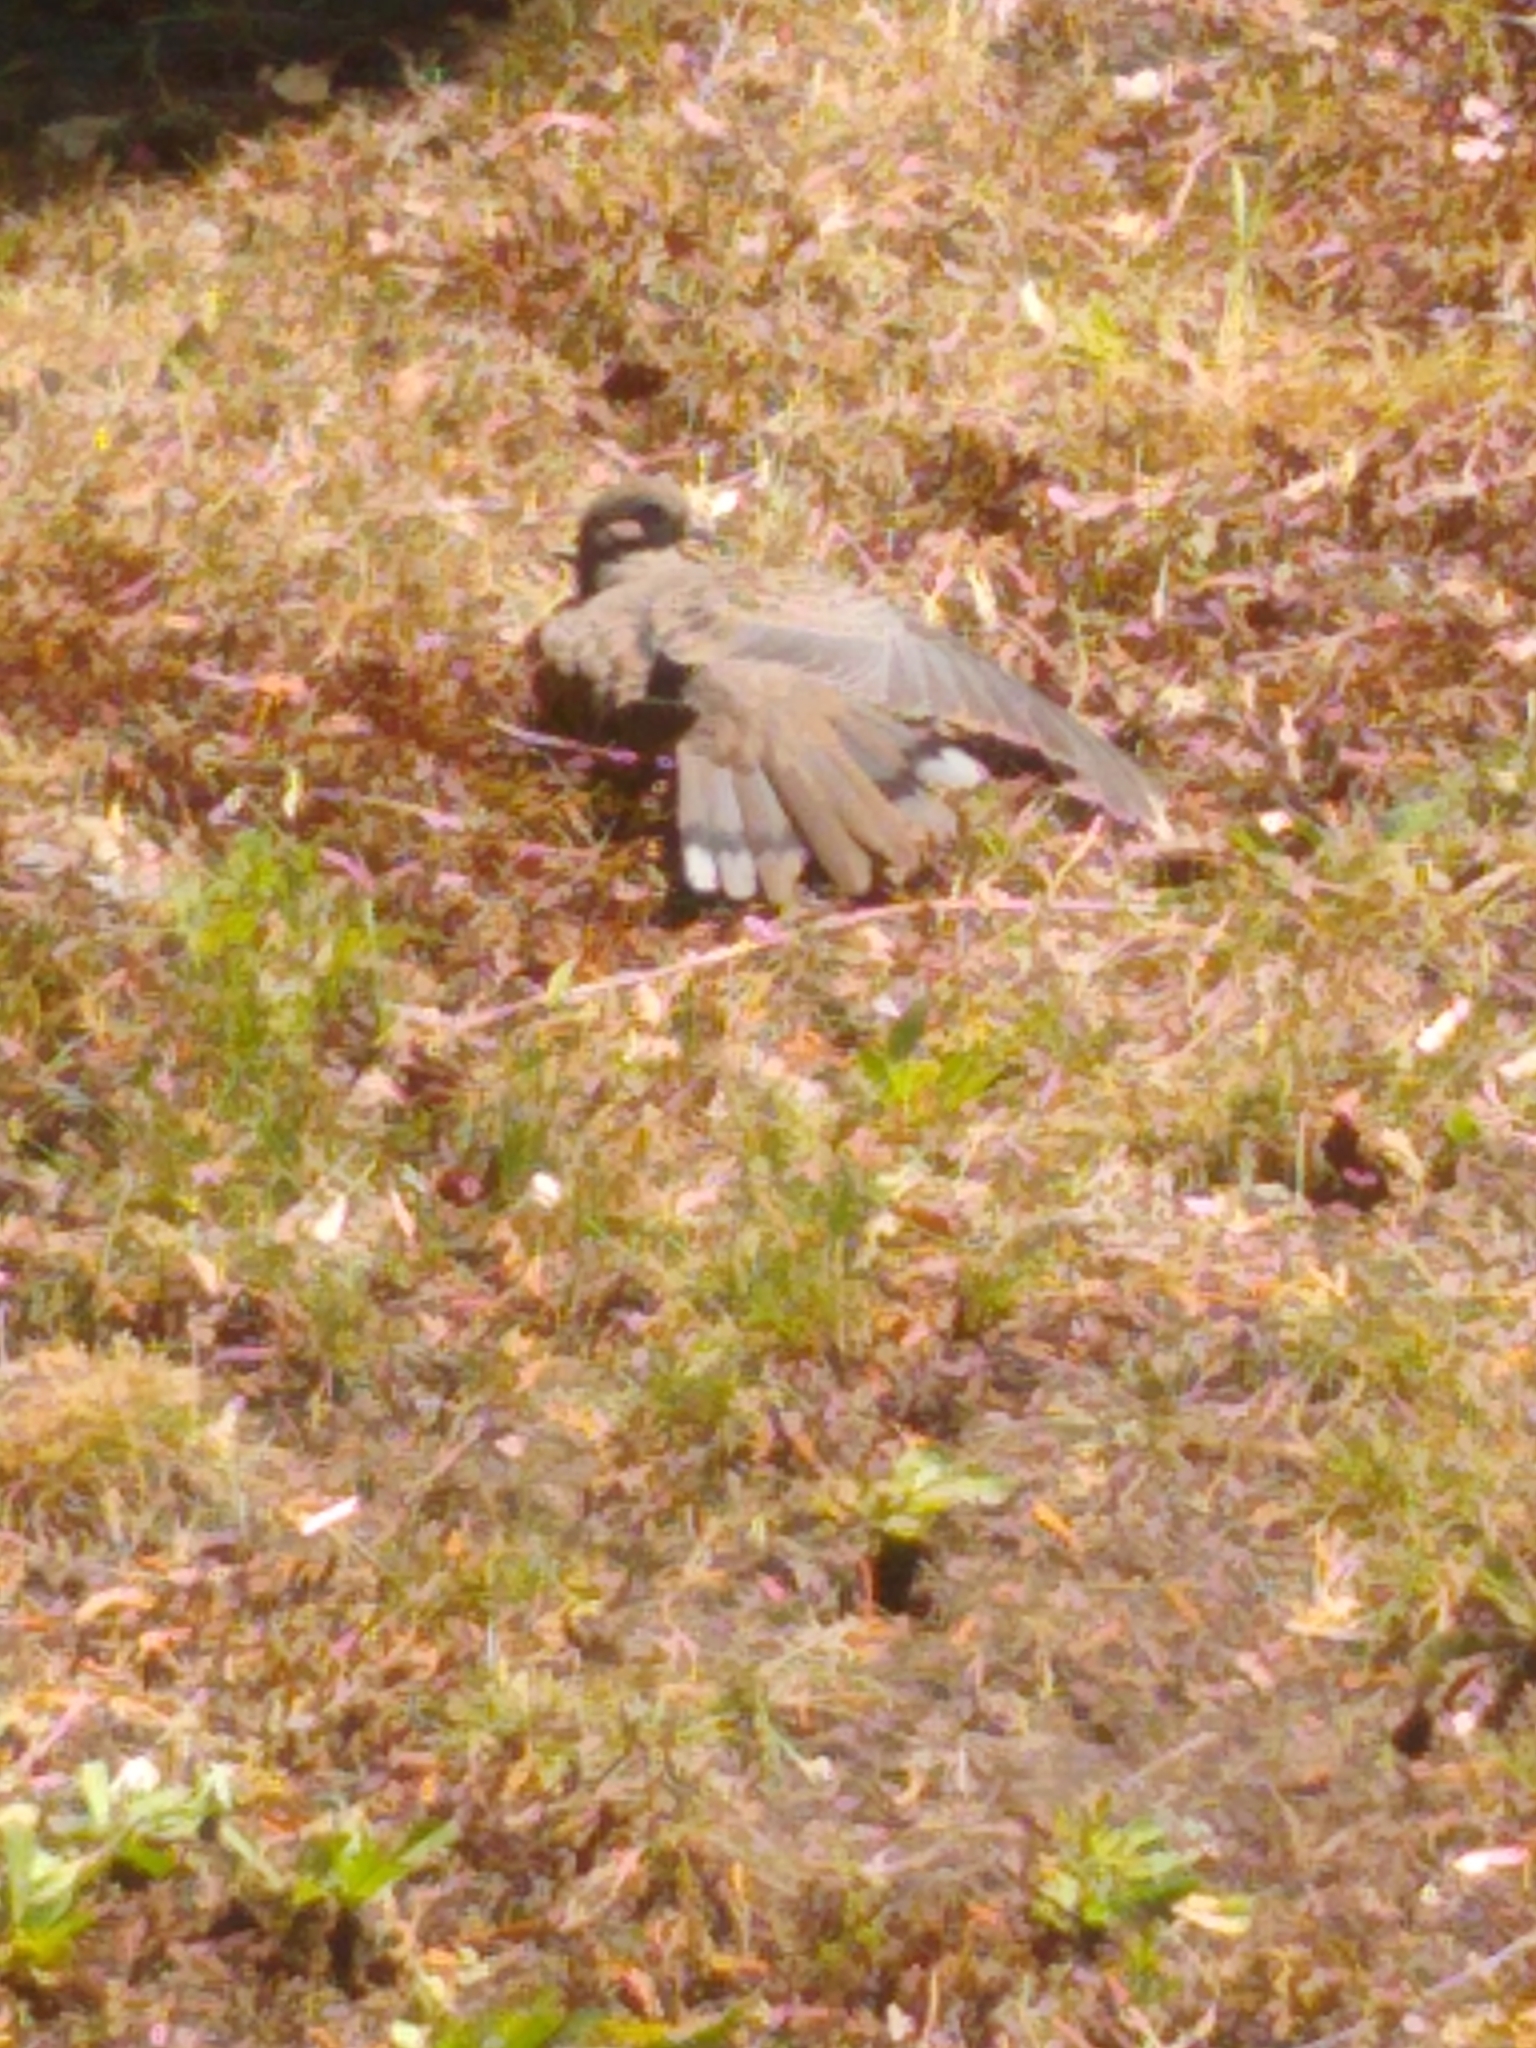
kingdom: Animalia
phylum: Chordata
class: Aves
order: Columbiformes
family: Columbidae
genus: Zenaida
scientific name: Zenaida macroura
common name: Mourning dove
